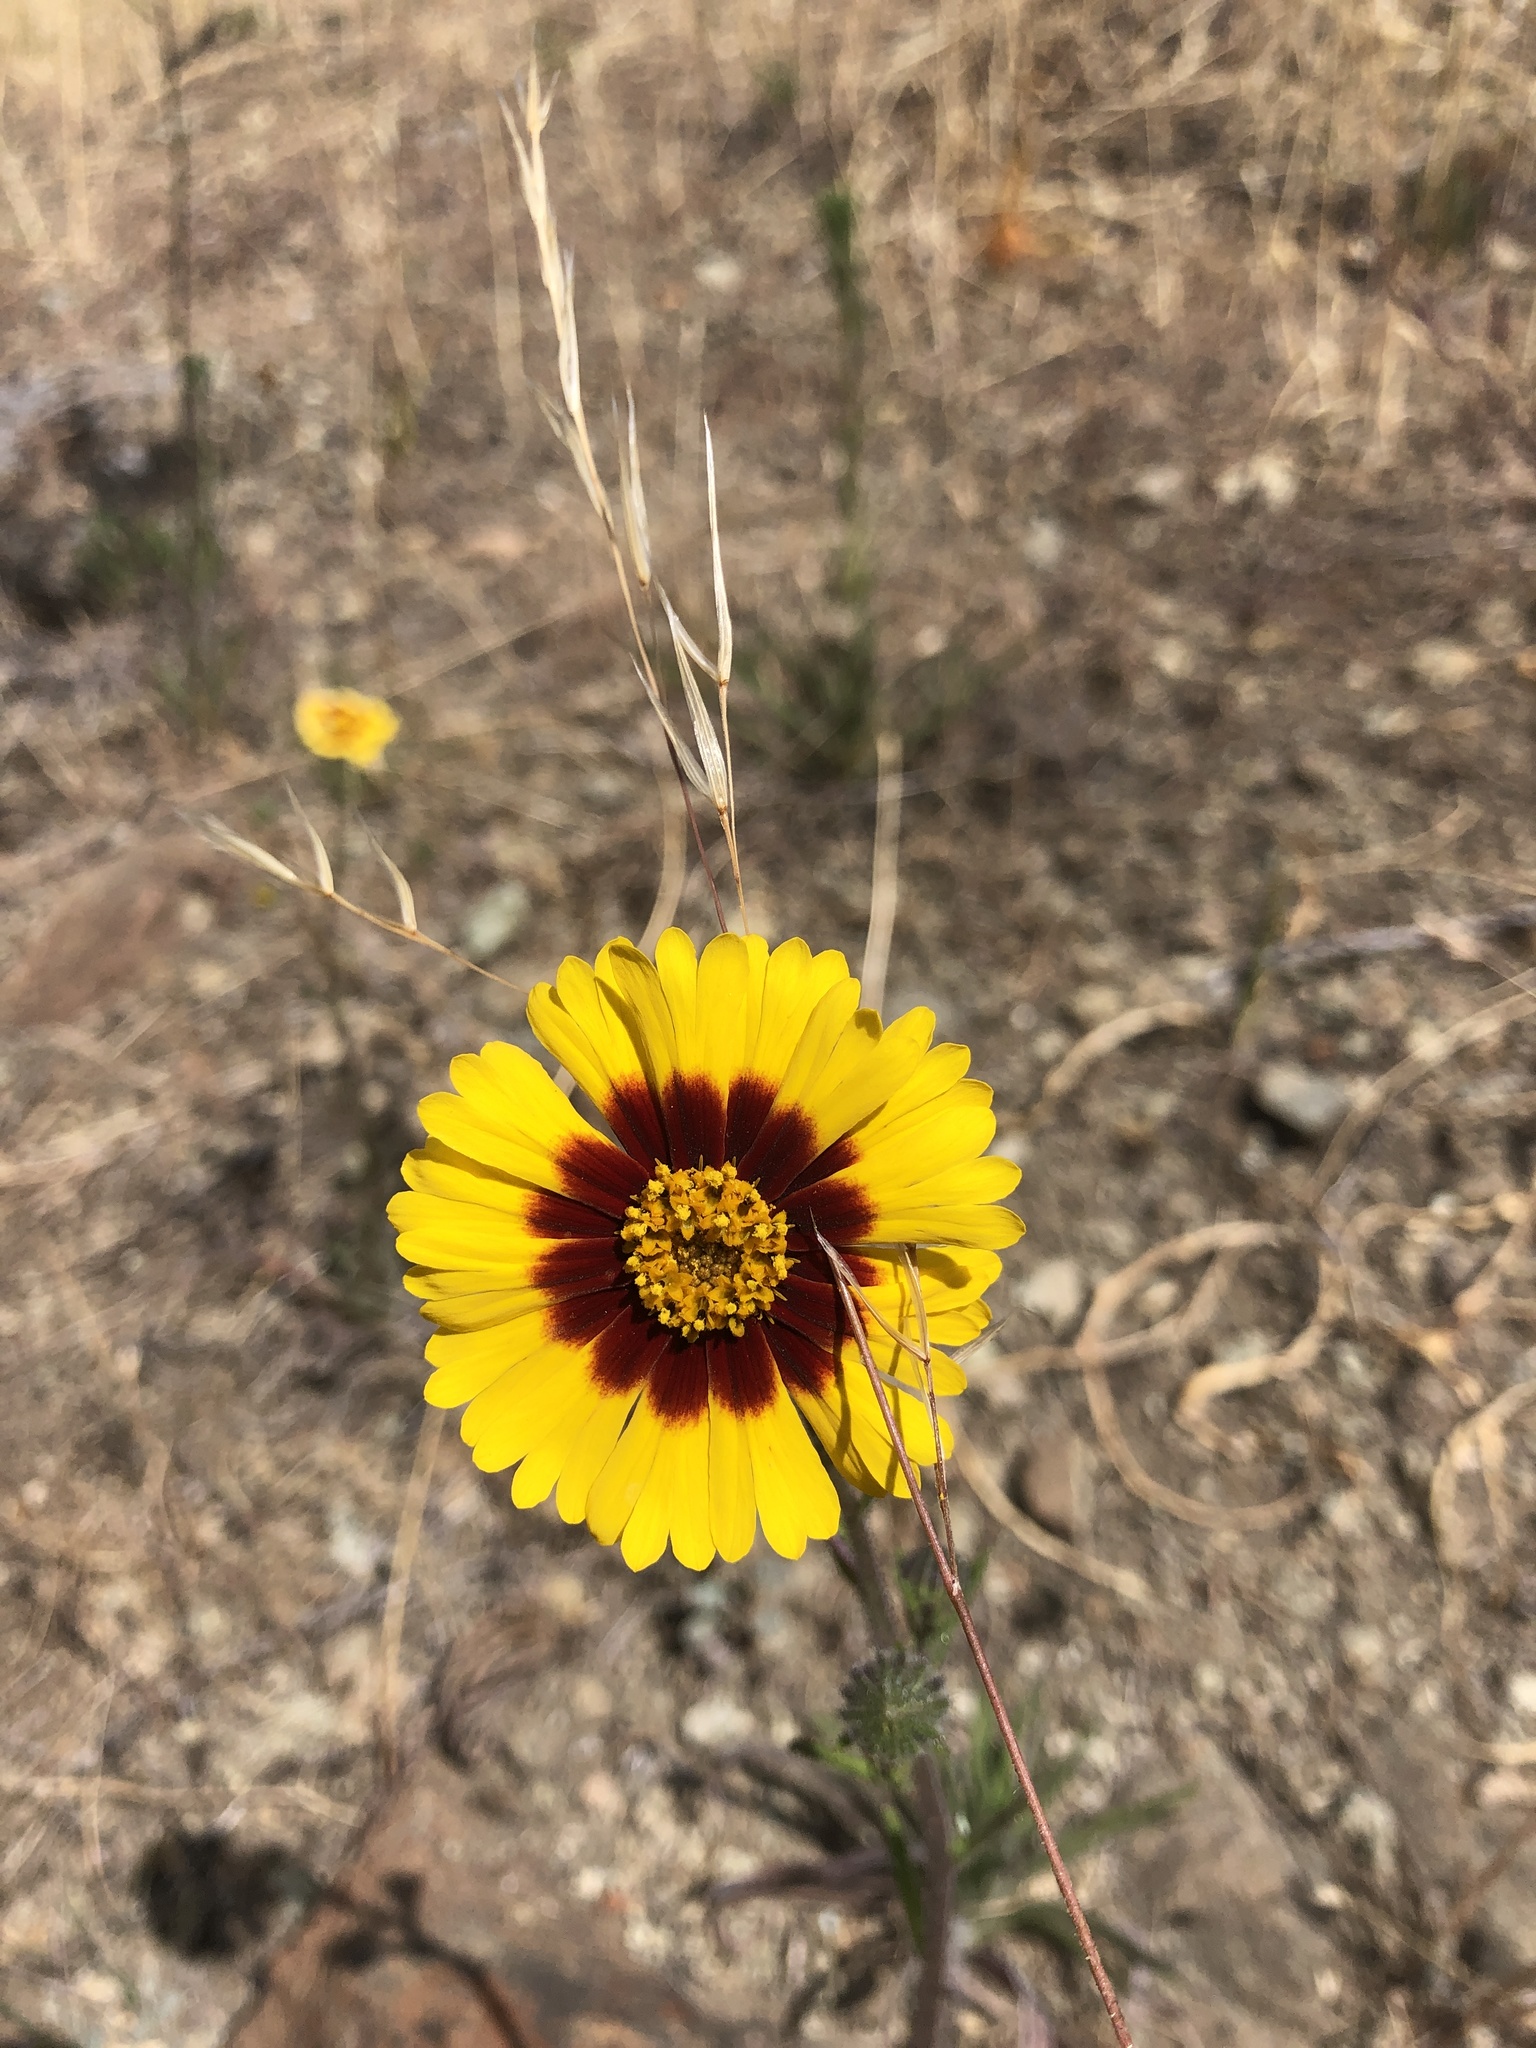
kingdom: Plantae
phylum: Tracheophyta
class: Magnoliopsida
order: Asterales
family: Asteraceae
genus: Madia
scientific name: Madia elegans
